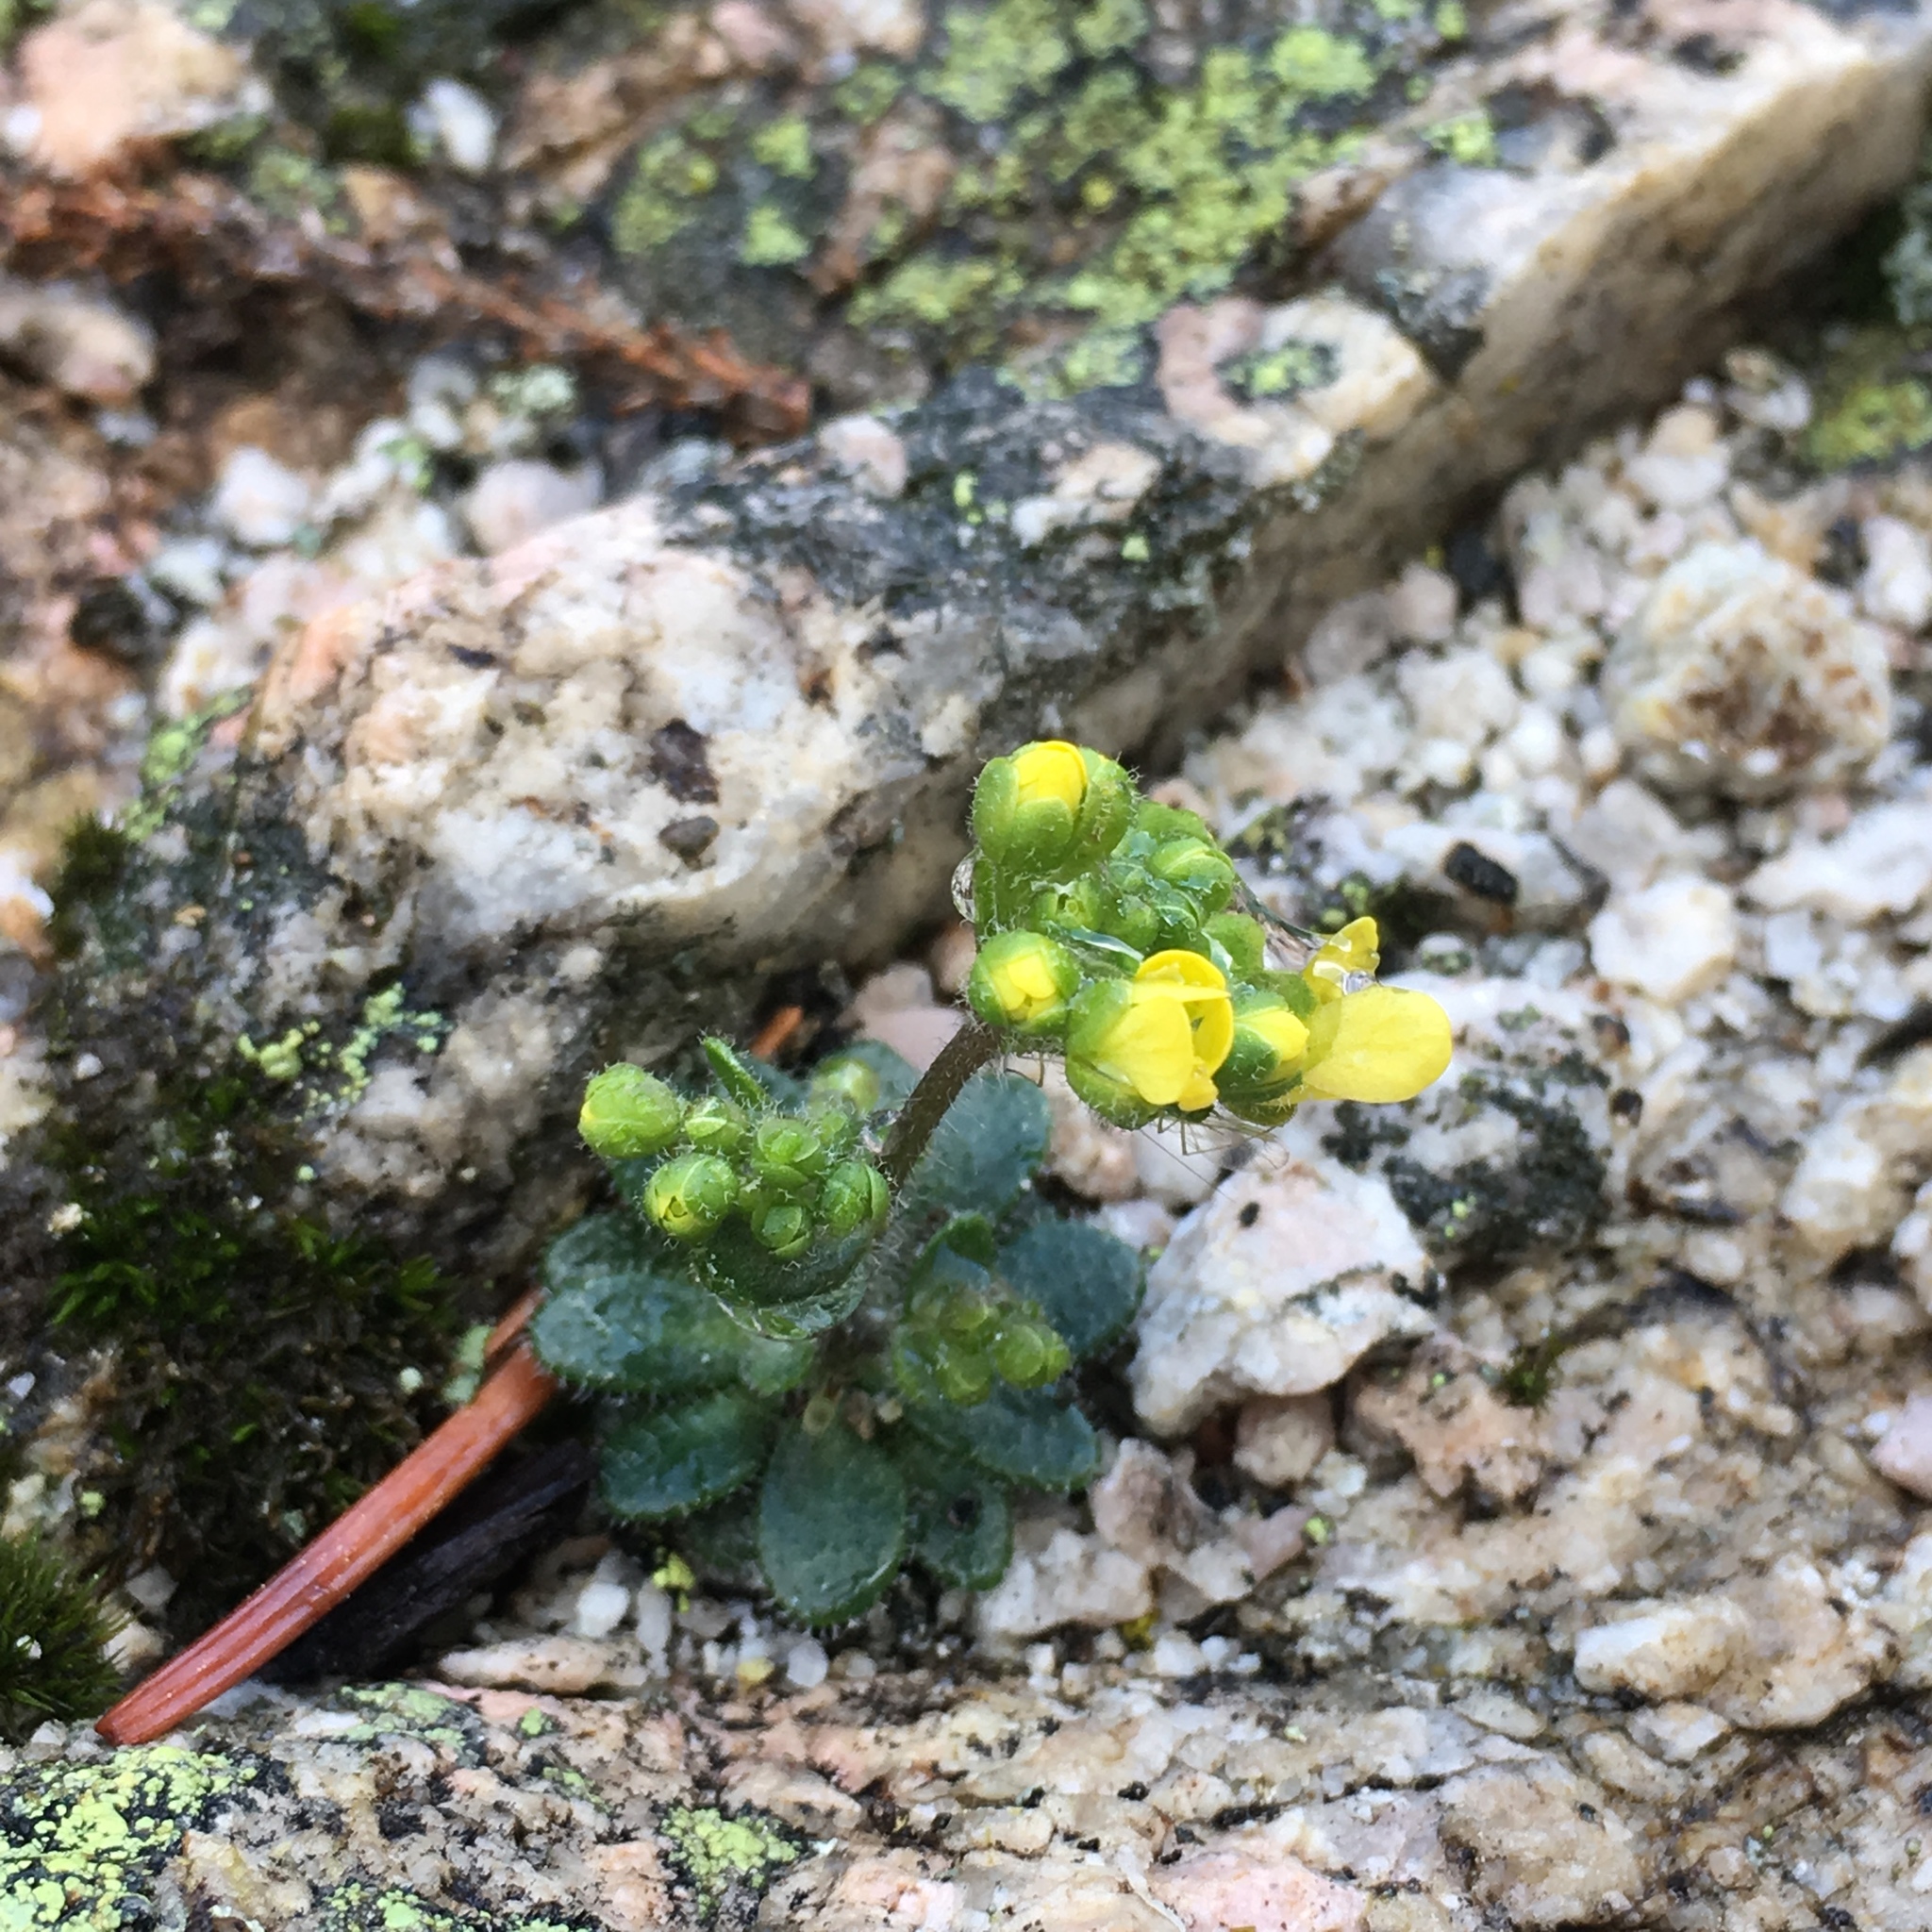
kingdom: Plantae
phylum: Tracheophyta
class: Magnoliopsida
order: Brassicales
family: Brassicaceae
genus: Draba
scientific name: Draba howellii
